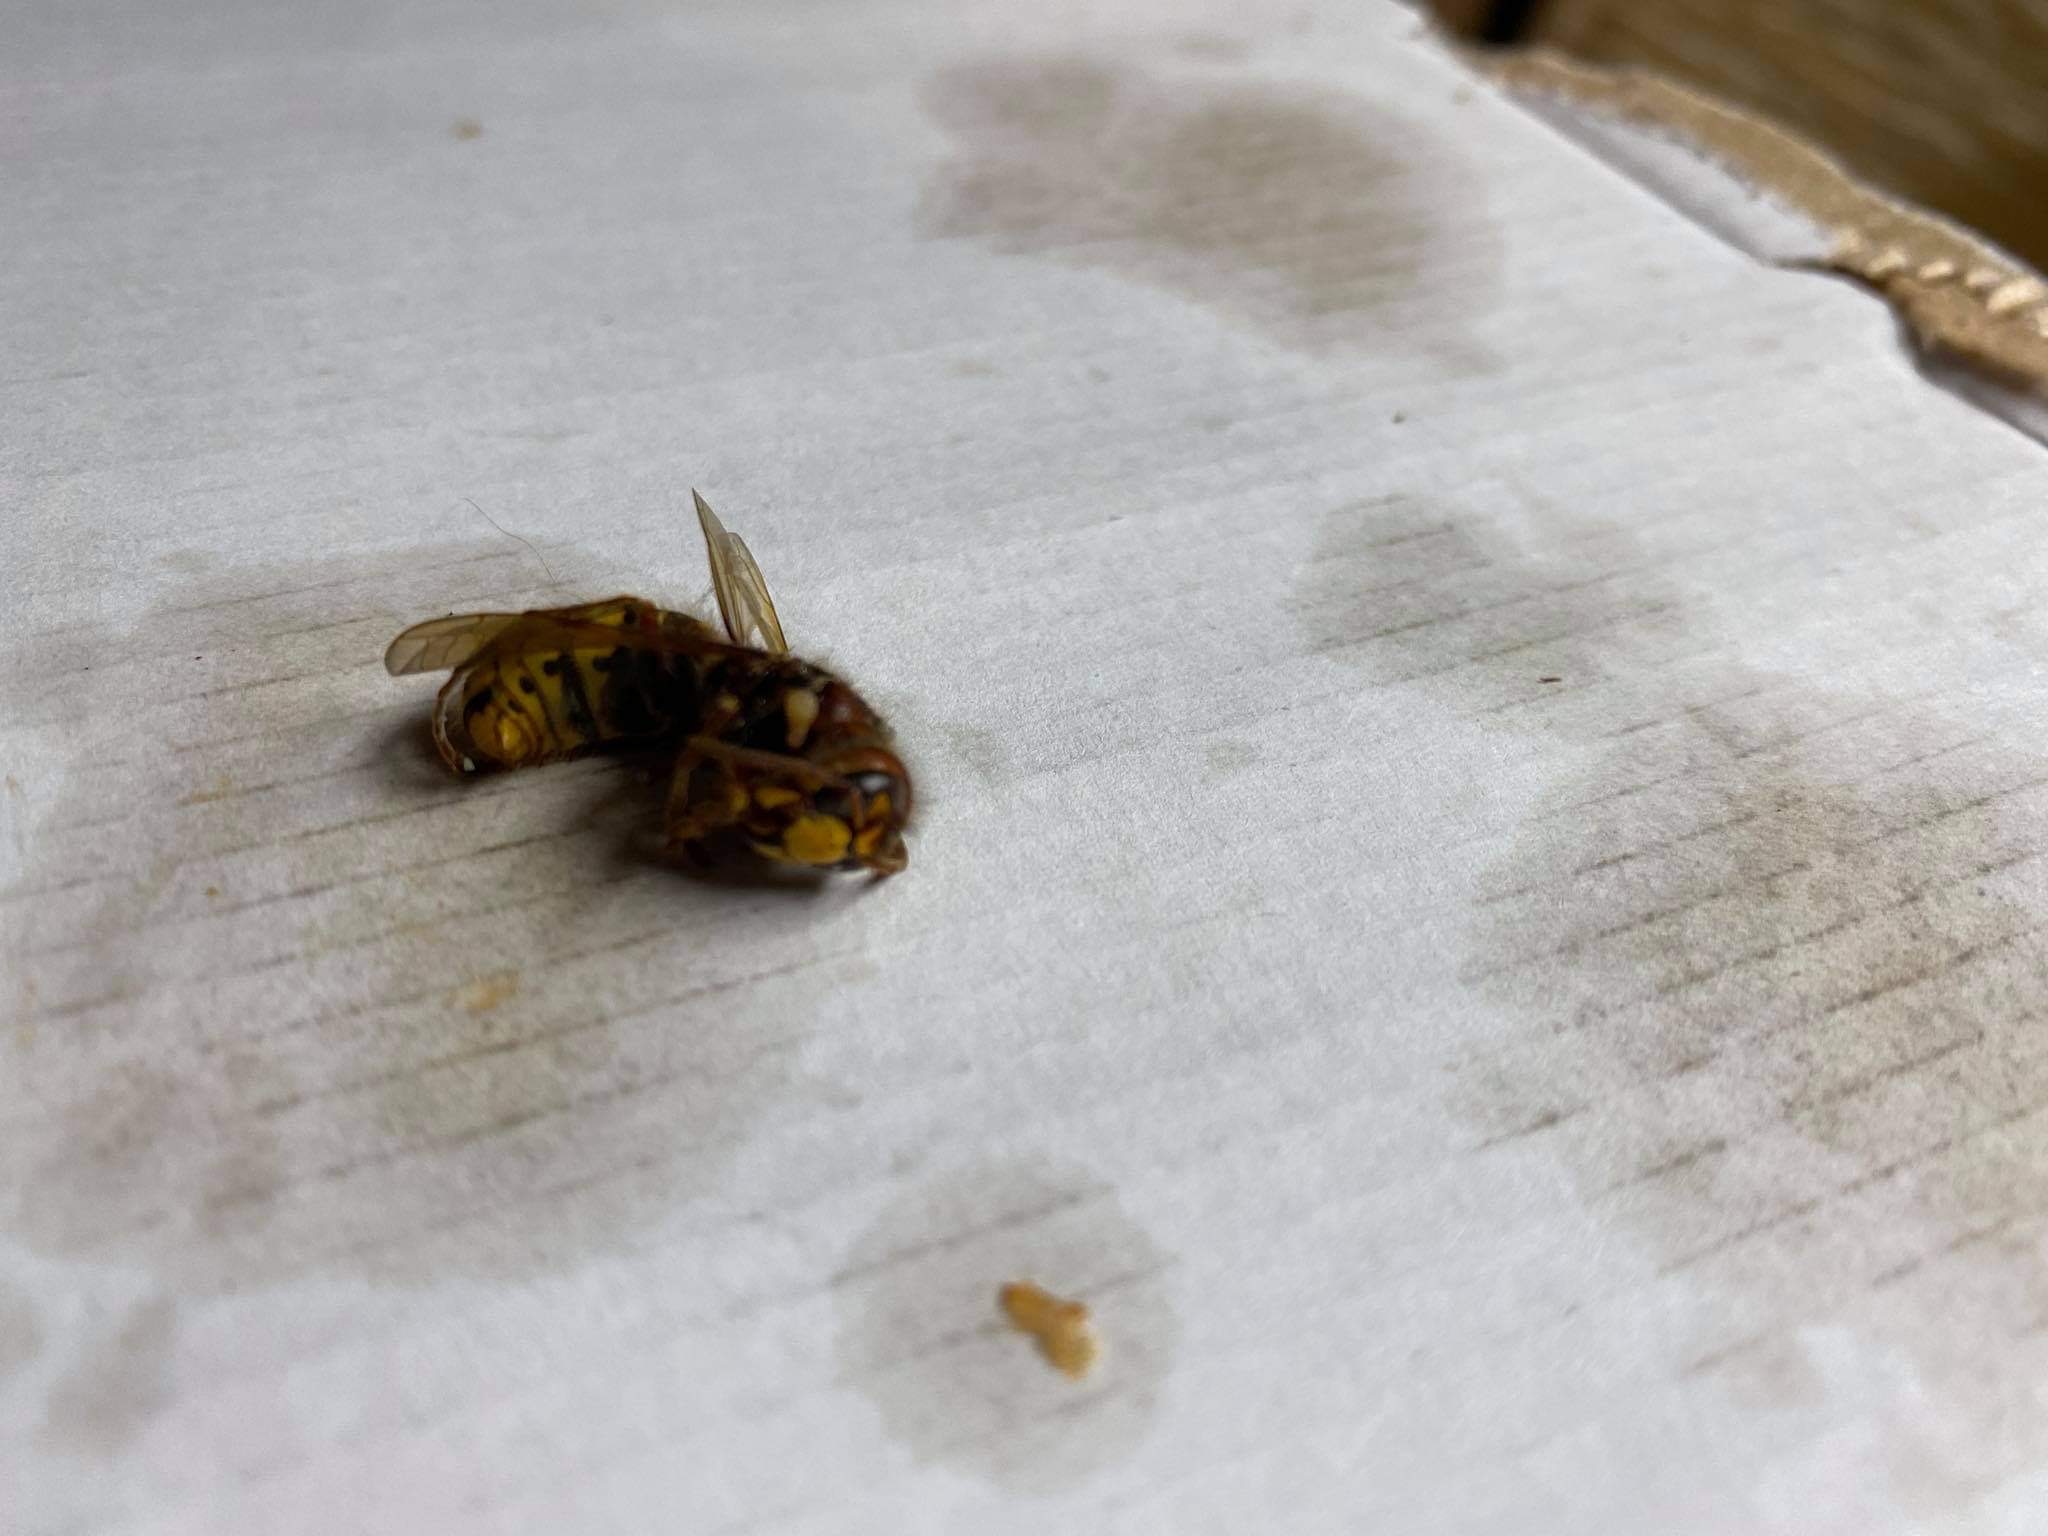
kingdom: Animalia
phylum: Arthropoda
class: Insecta
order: Hymenoptera
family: Vespidae
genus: Vespa
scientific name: Vespa crabro
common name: Hornet
